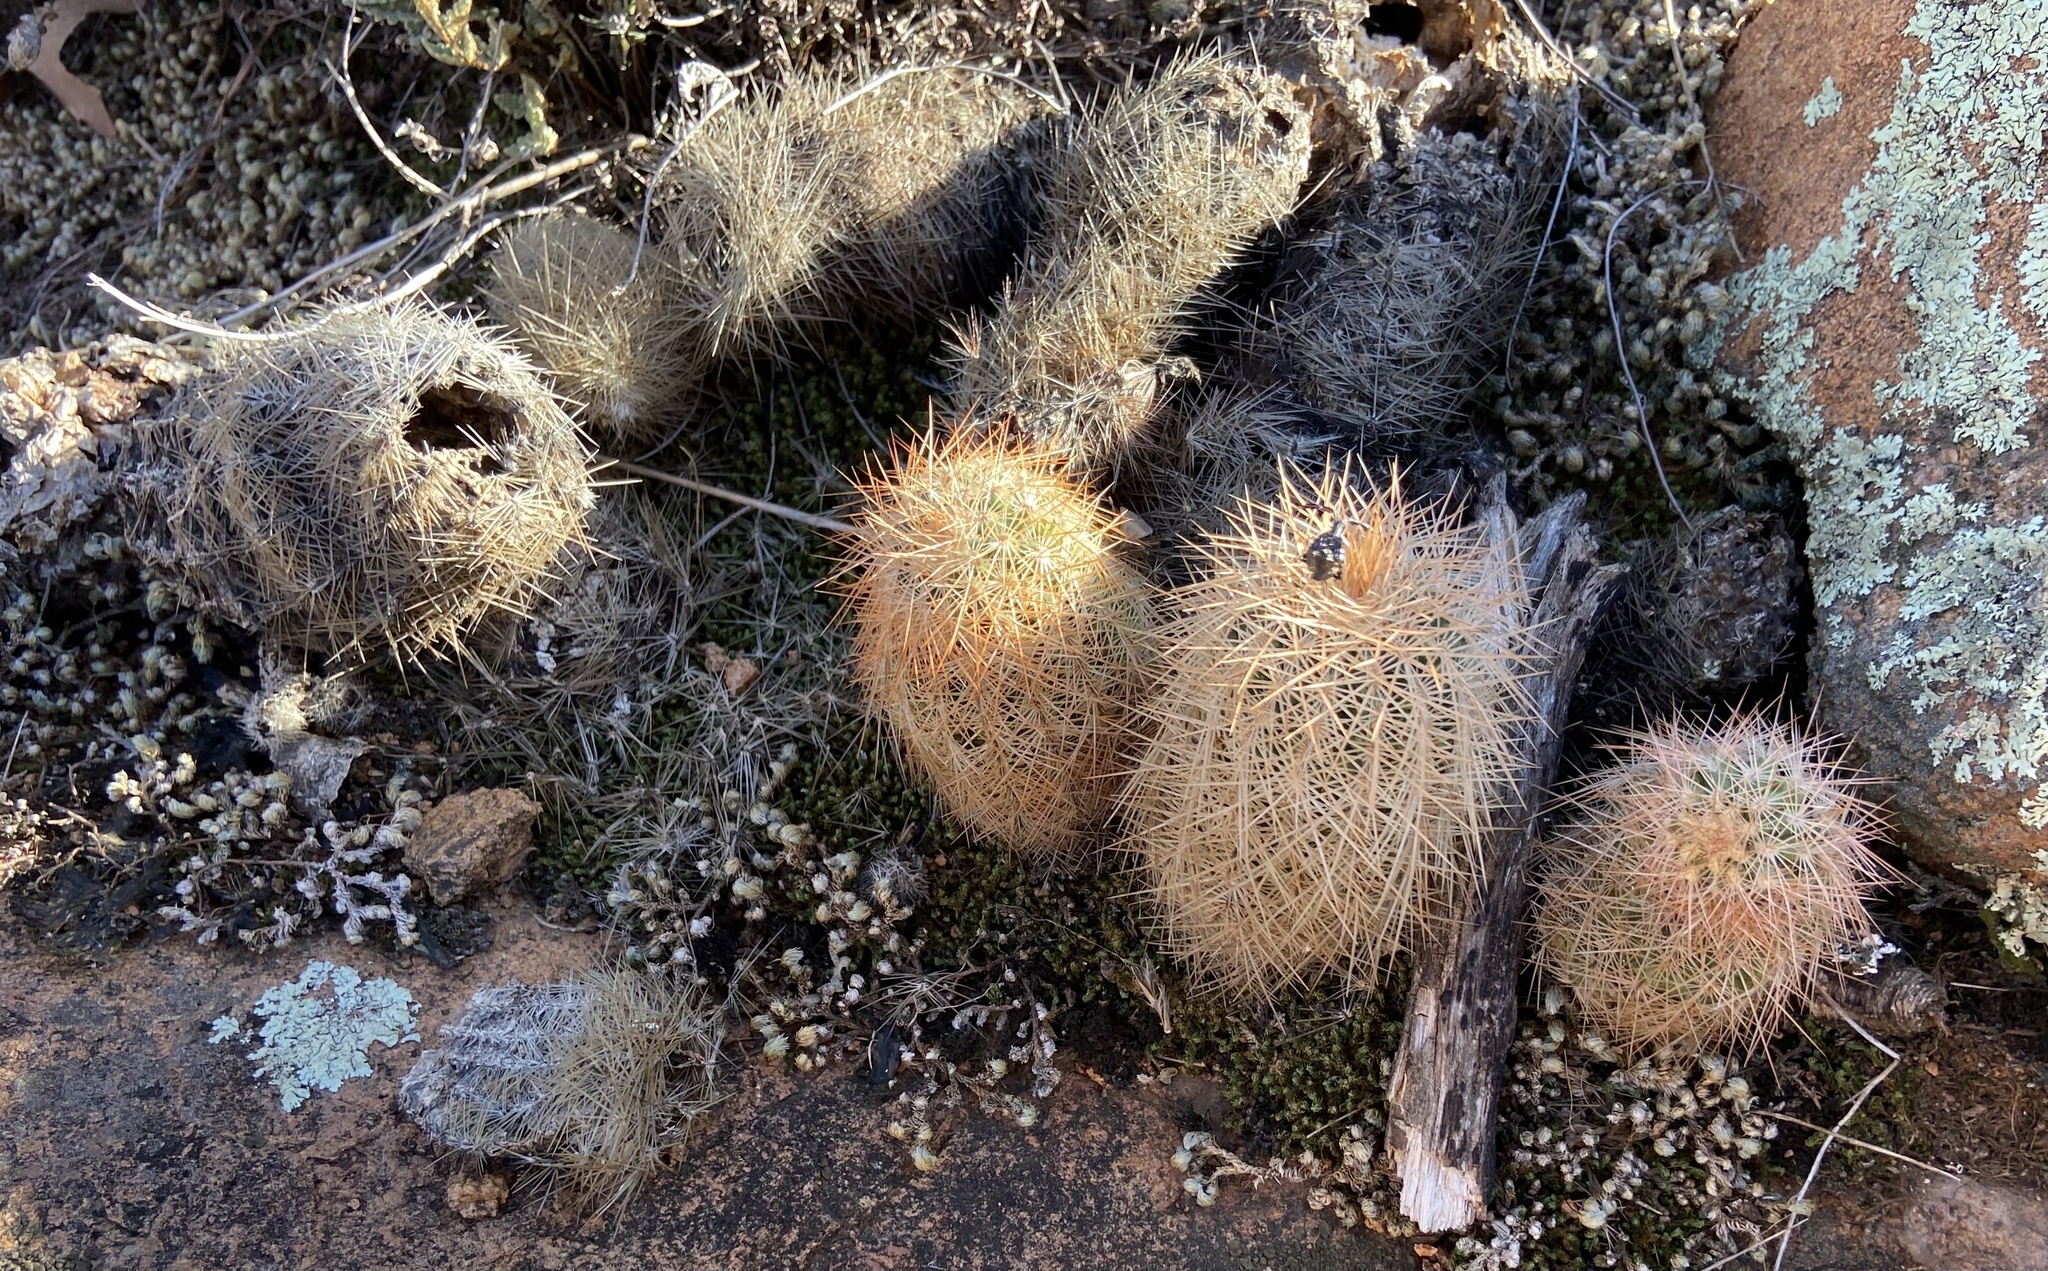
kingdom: Plantae
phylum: Tracheophyta
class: Magnoliopsida
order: Caryophyllales
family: Cactaceae
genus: Echinocereus
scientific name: Echinocereus reichenbachii
